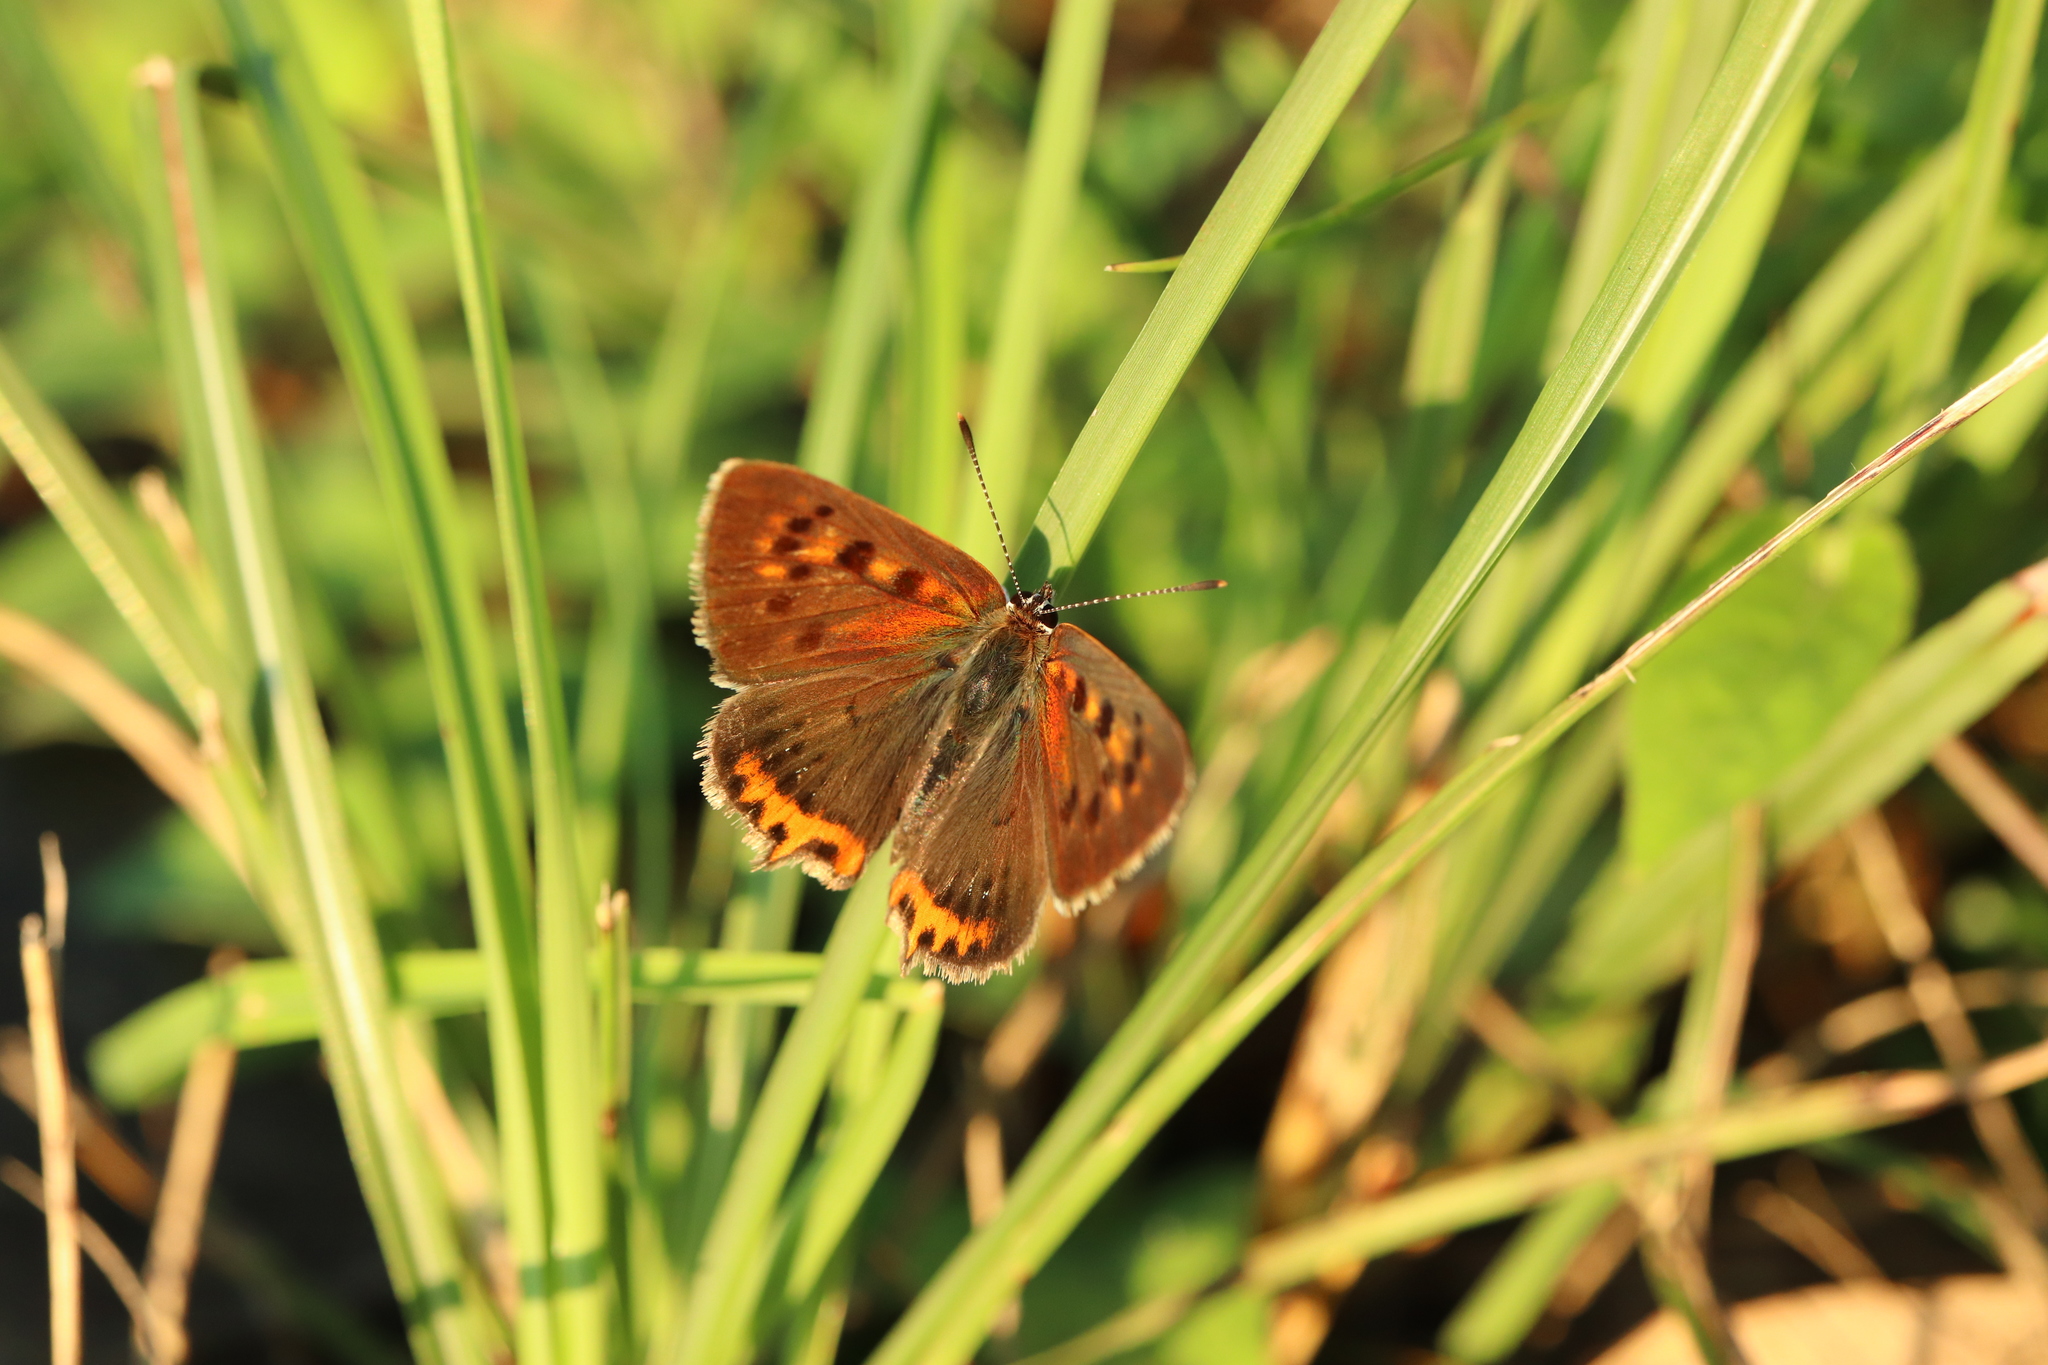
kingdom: Animalia
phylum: Arthropoda
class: Insecta
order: Lepidoptera
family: Lycaenidae
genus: Lycaena
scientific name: Lycaena phlaeas
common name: Small copper
